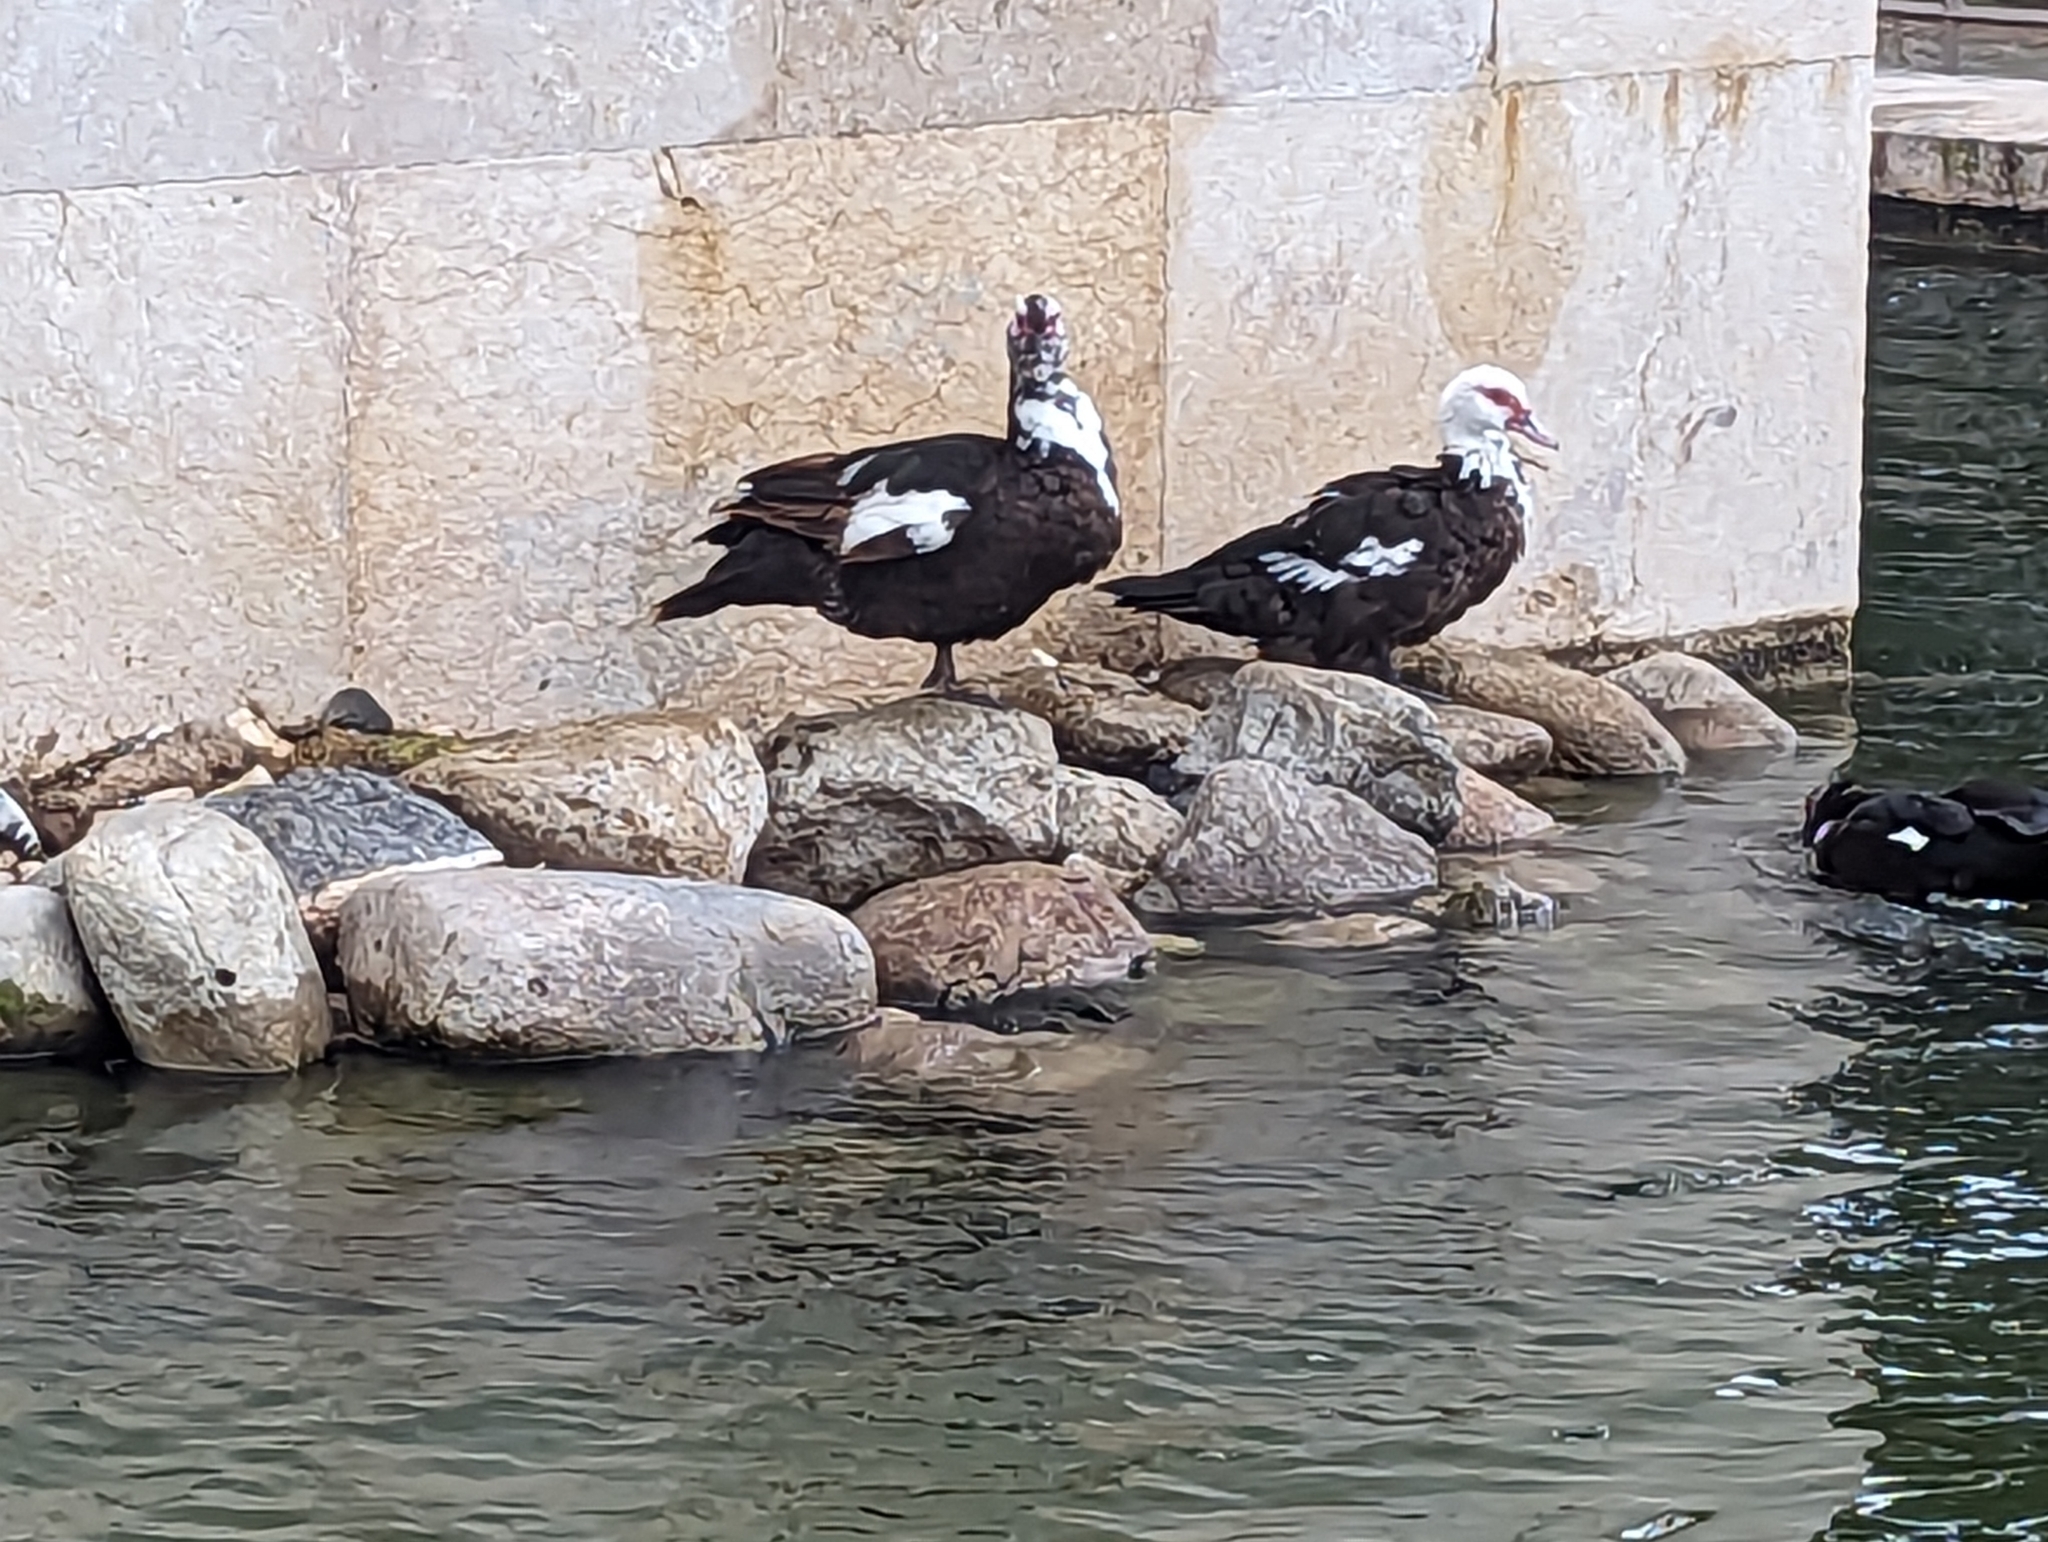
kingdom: Animalia
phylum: Chordata
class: Aves
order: Anseriformes
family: Anatidae
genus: Cairina
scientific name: Cairina moschata
